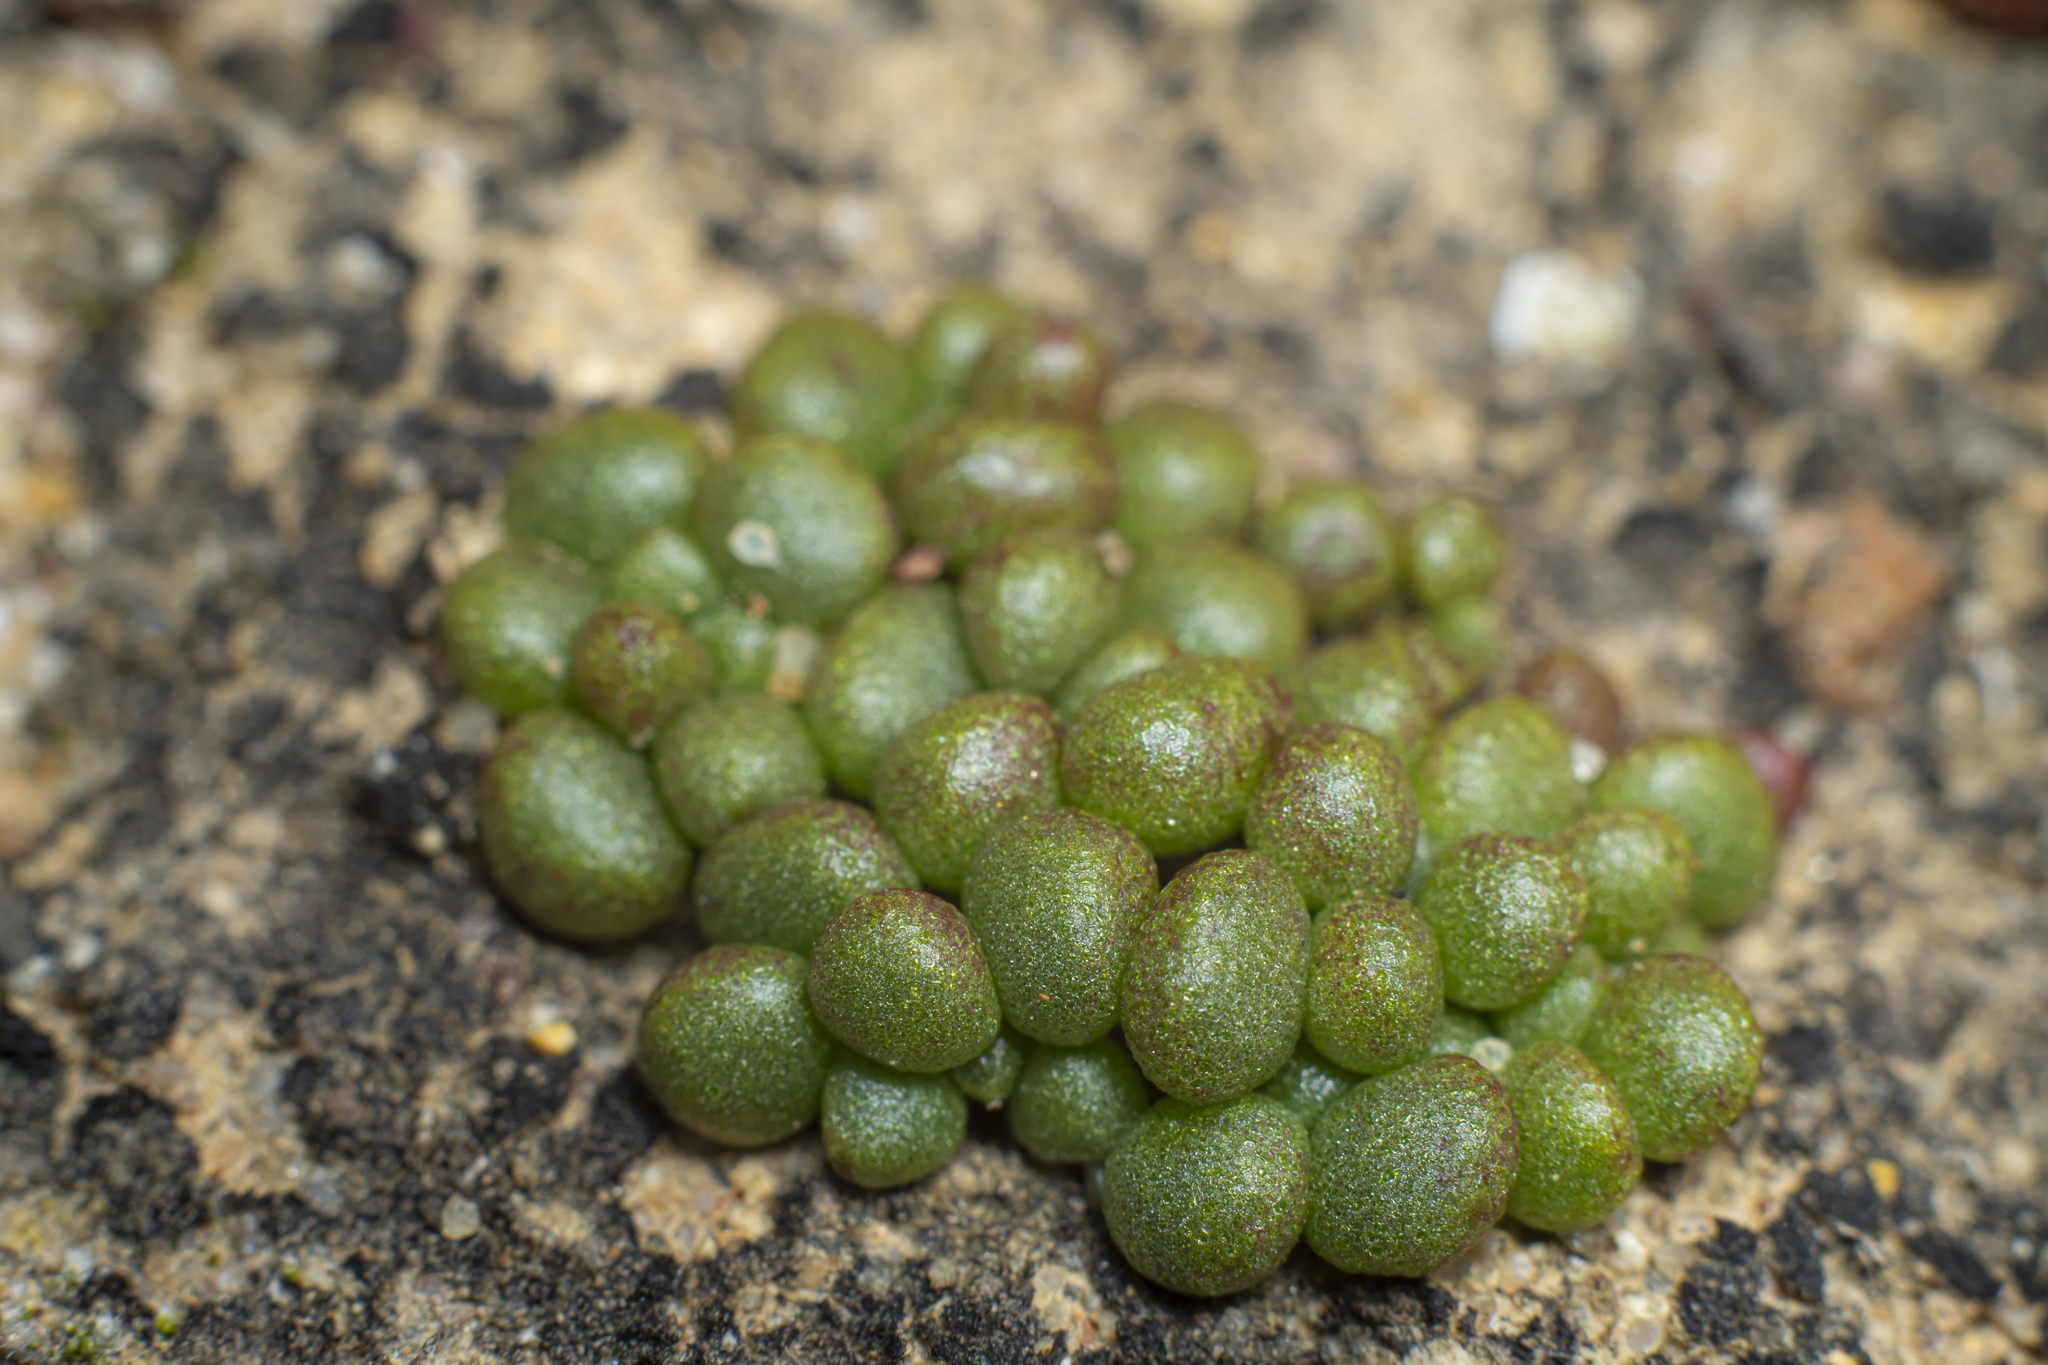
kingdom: Plantae
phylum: Tracheophyta
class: Magnoliopsida
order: Saxifragales
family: Crassulaceae
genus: Dudleya
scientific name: Dudleya blochmaniae
